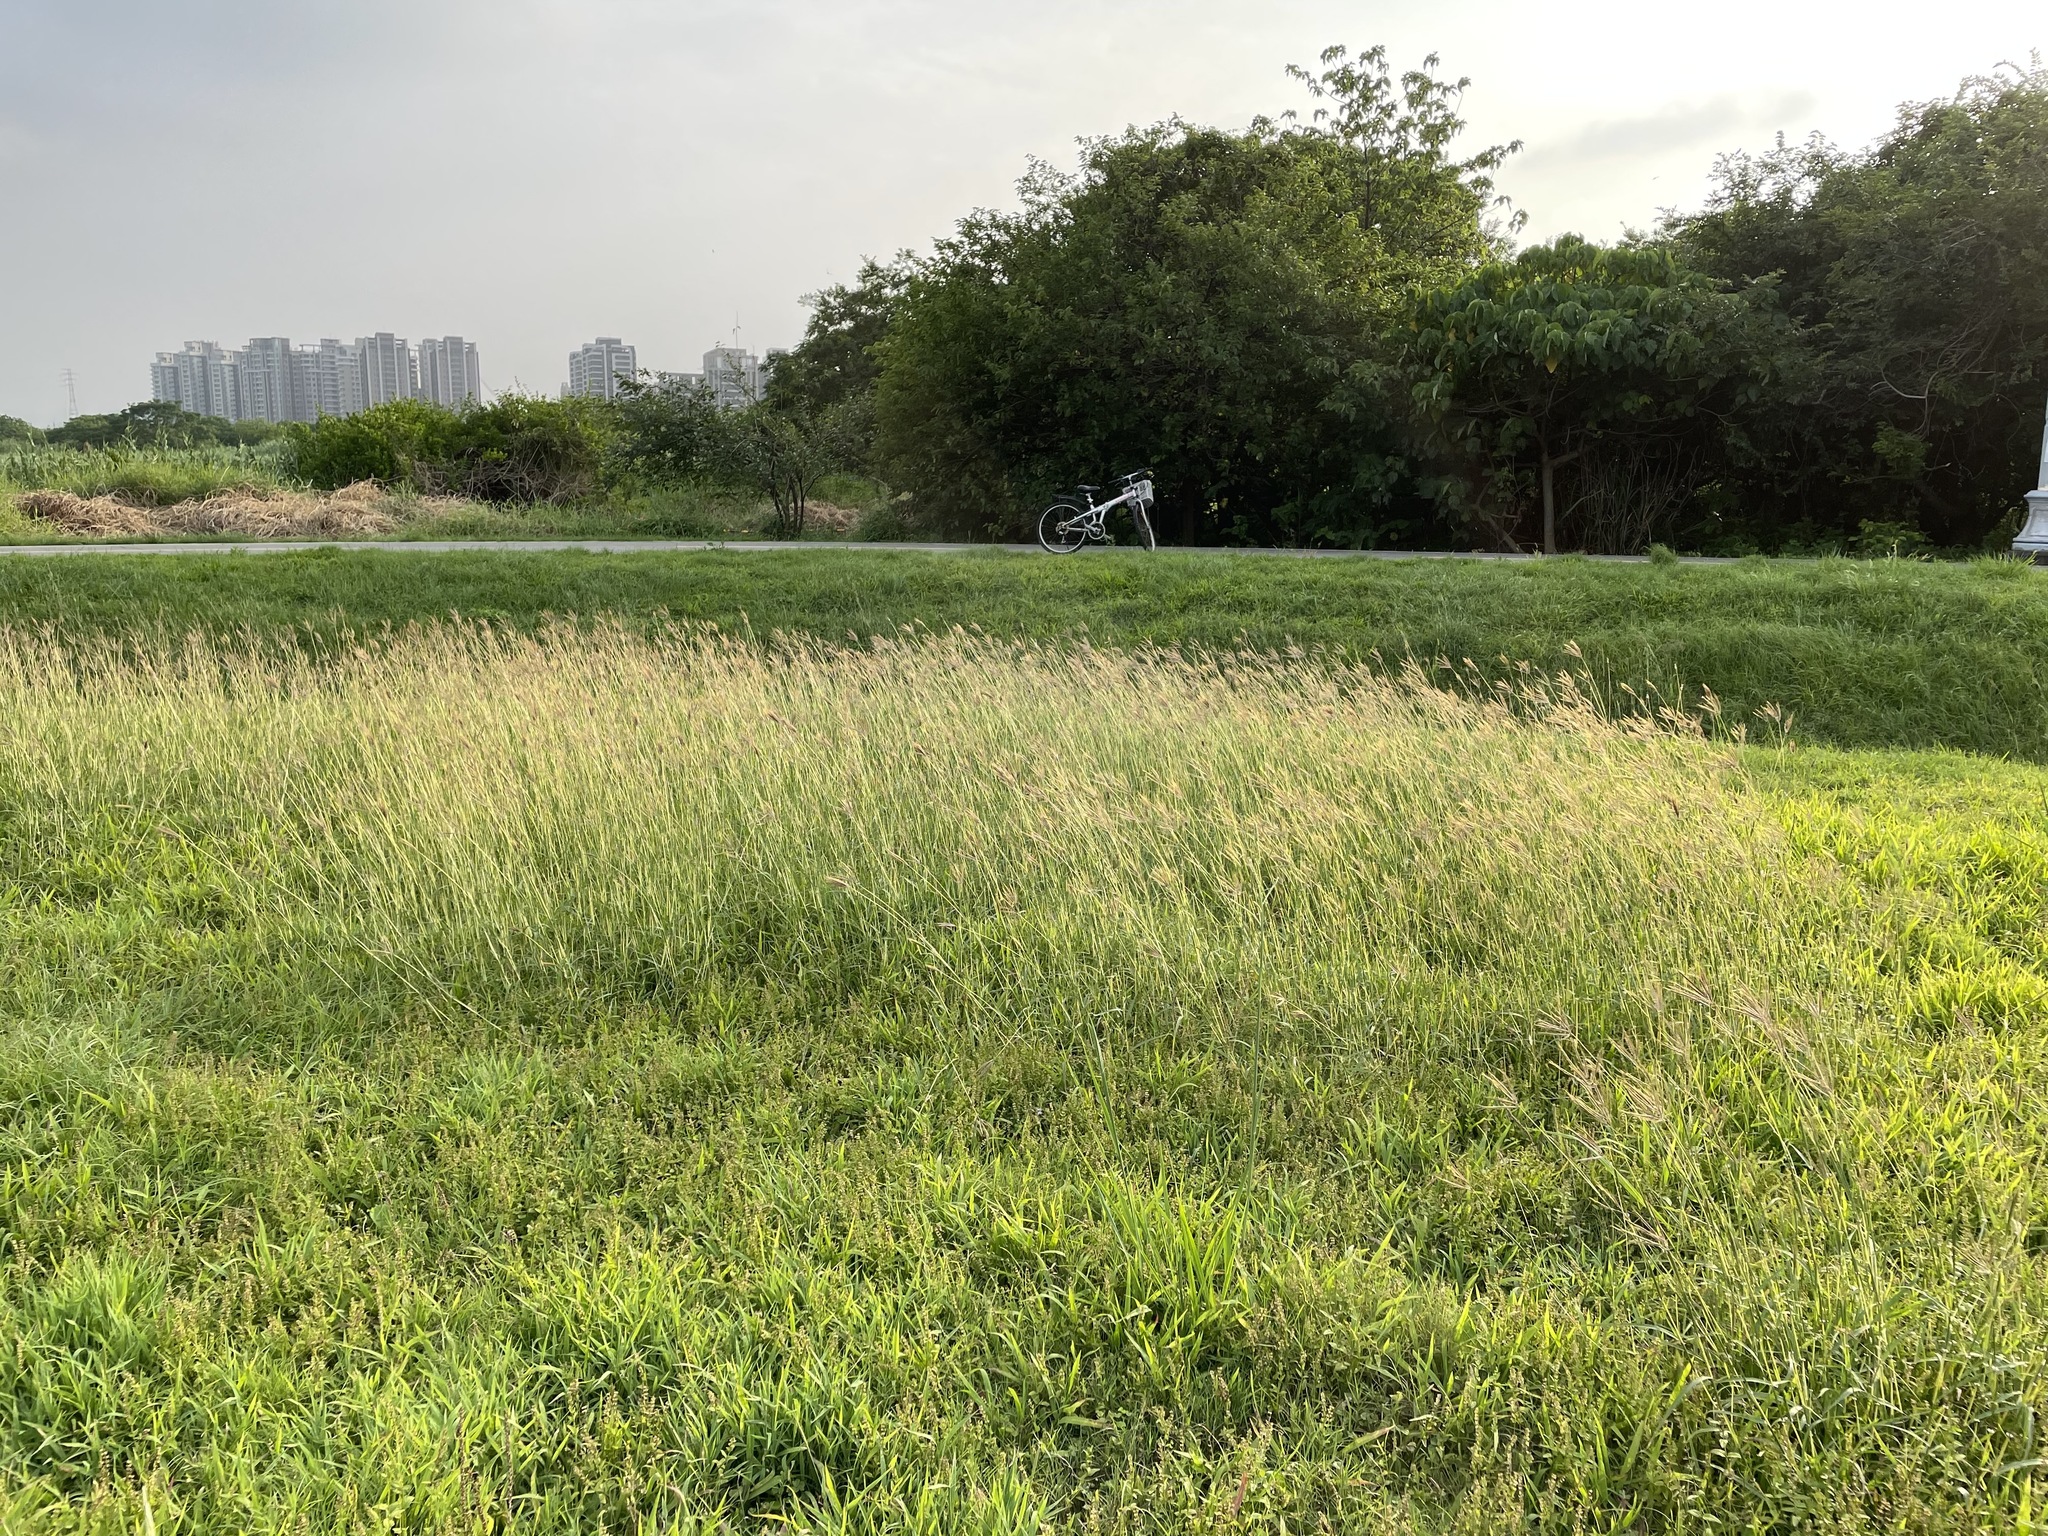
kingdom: Plantae
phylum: Tracheophyta
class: Liliopsida
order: Poales
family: Poaceae
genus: Dichanthium
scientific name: Dichanthium annulatum
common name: Kleberg's bluestem
